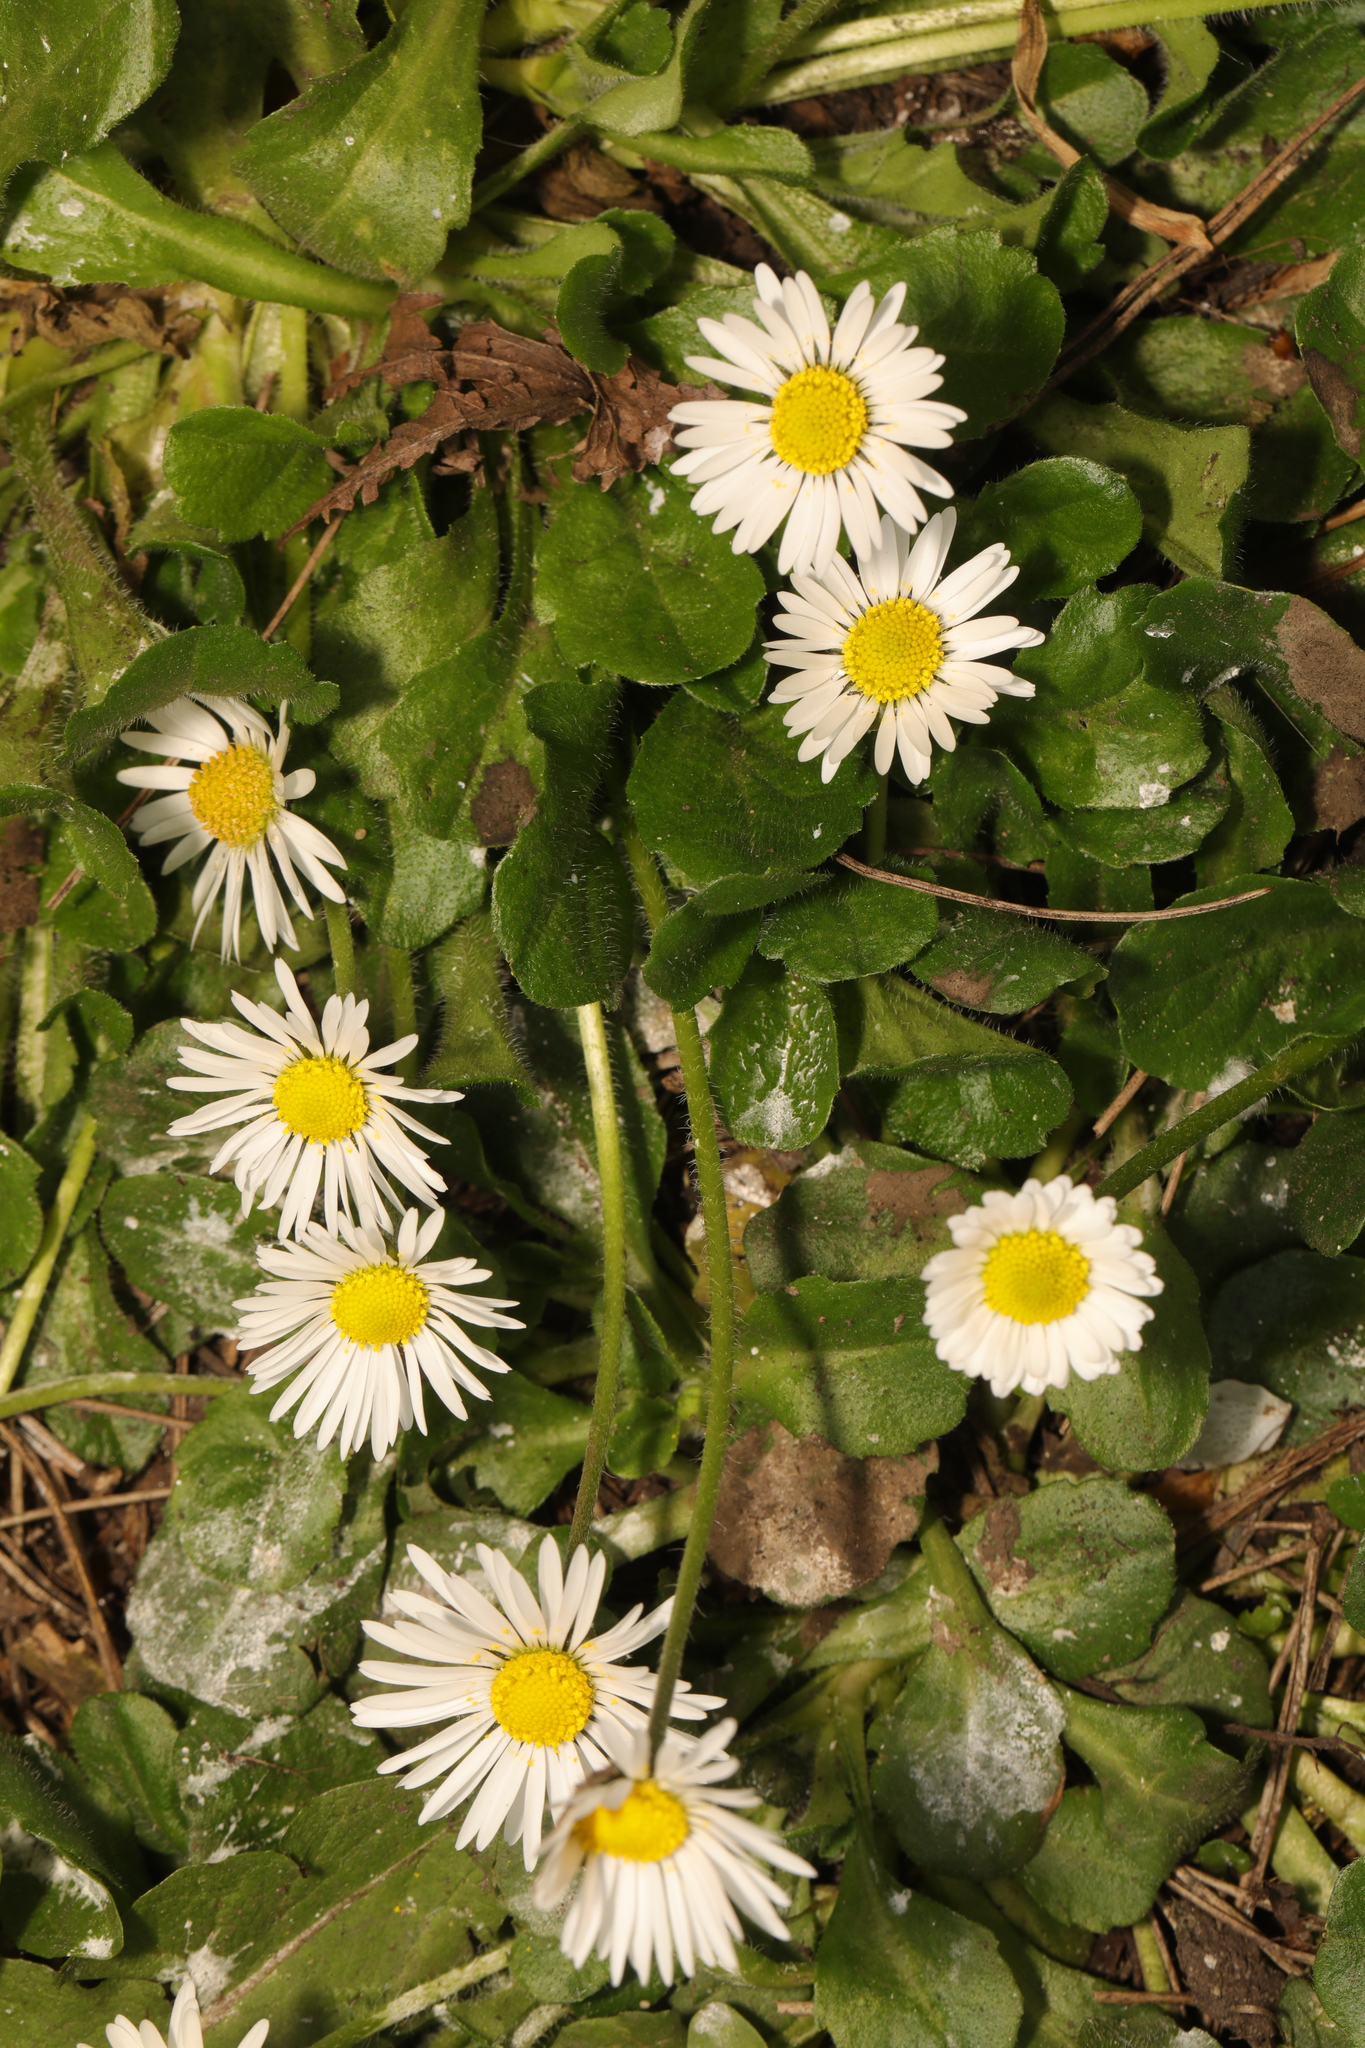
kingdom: Plantae
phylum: Tracheophyta
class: Magnoliopsida
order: Asterales
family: Asteraceae
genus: Bellis
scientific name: Bellis perennis
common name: Lawndaisy
